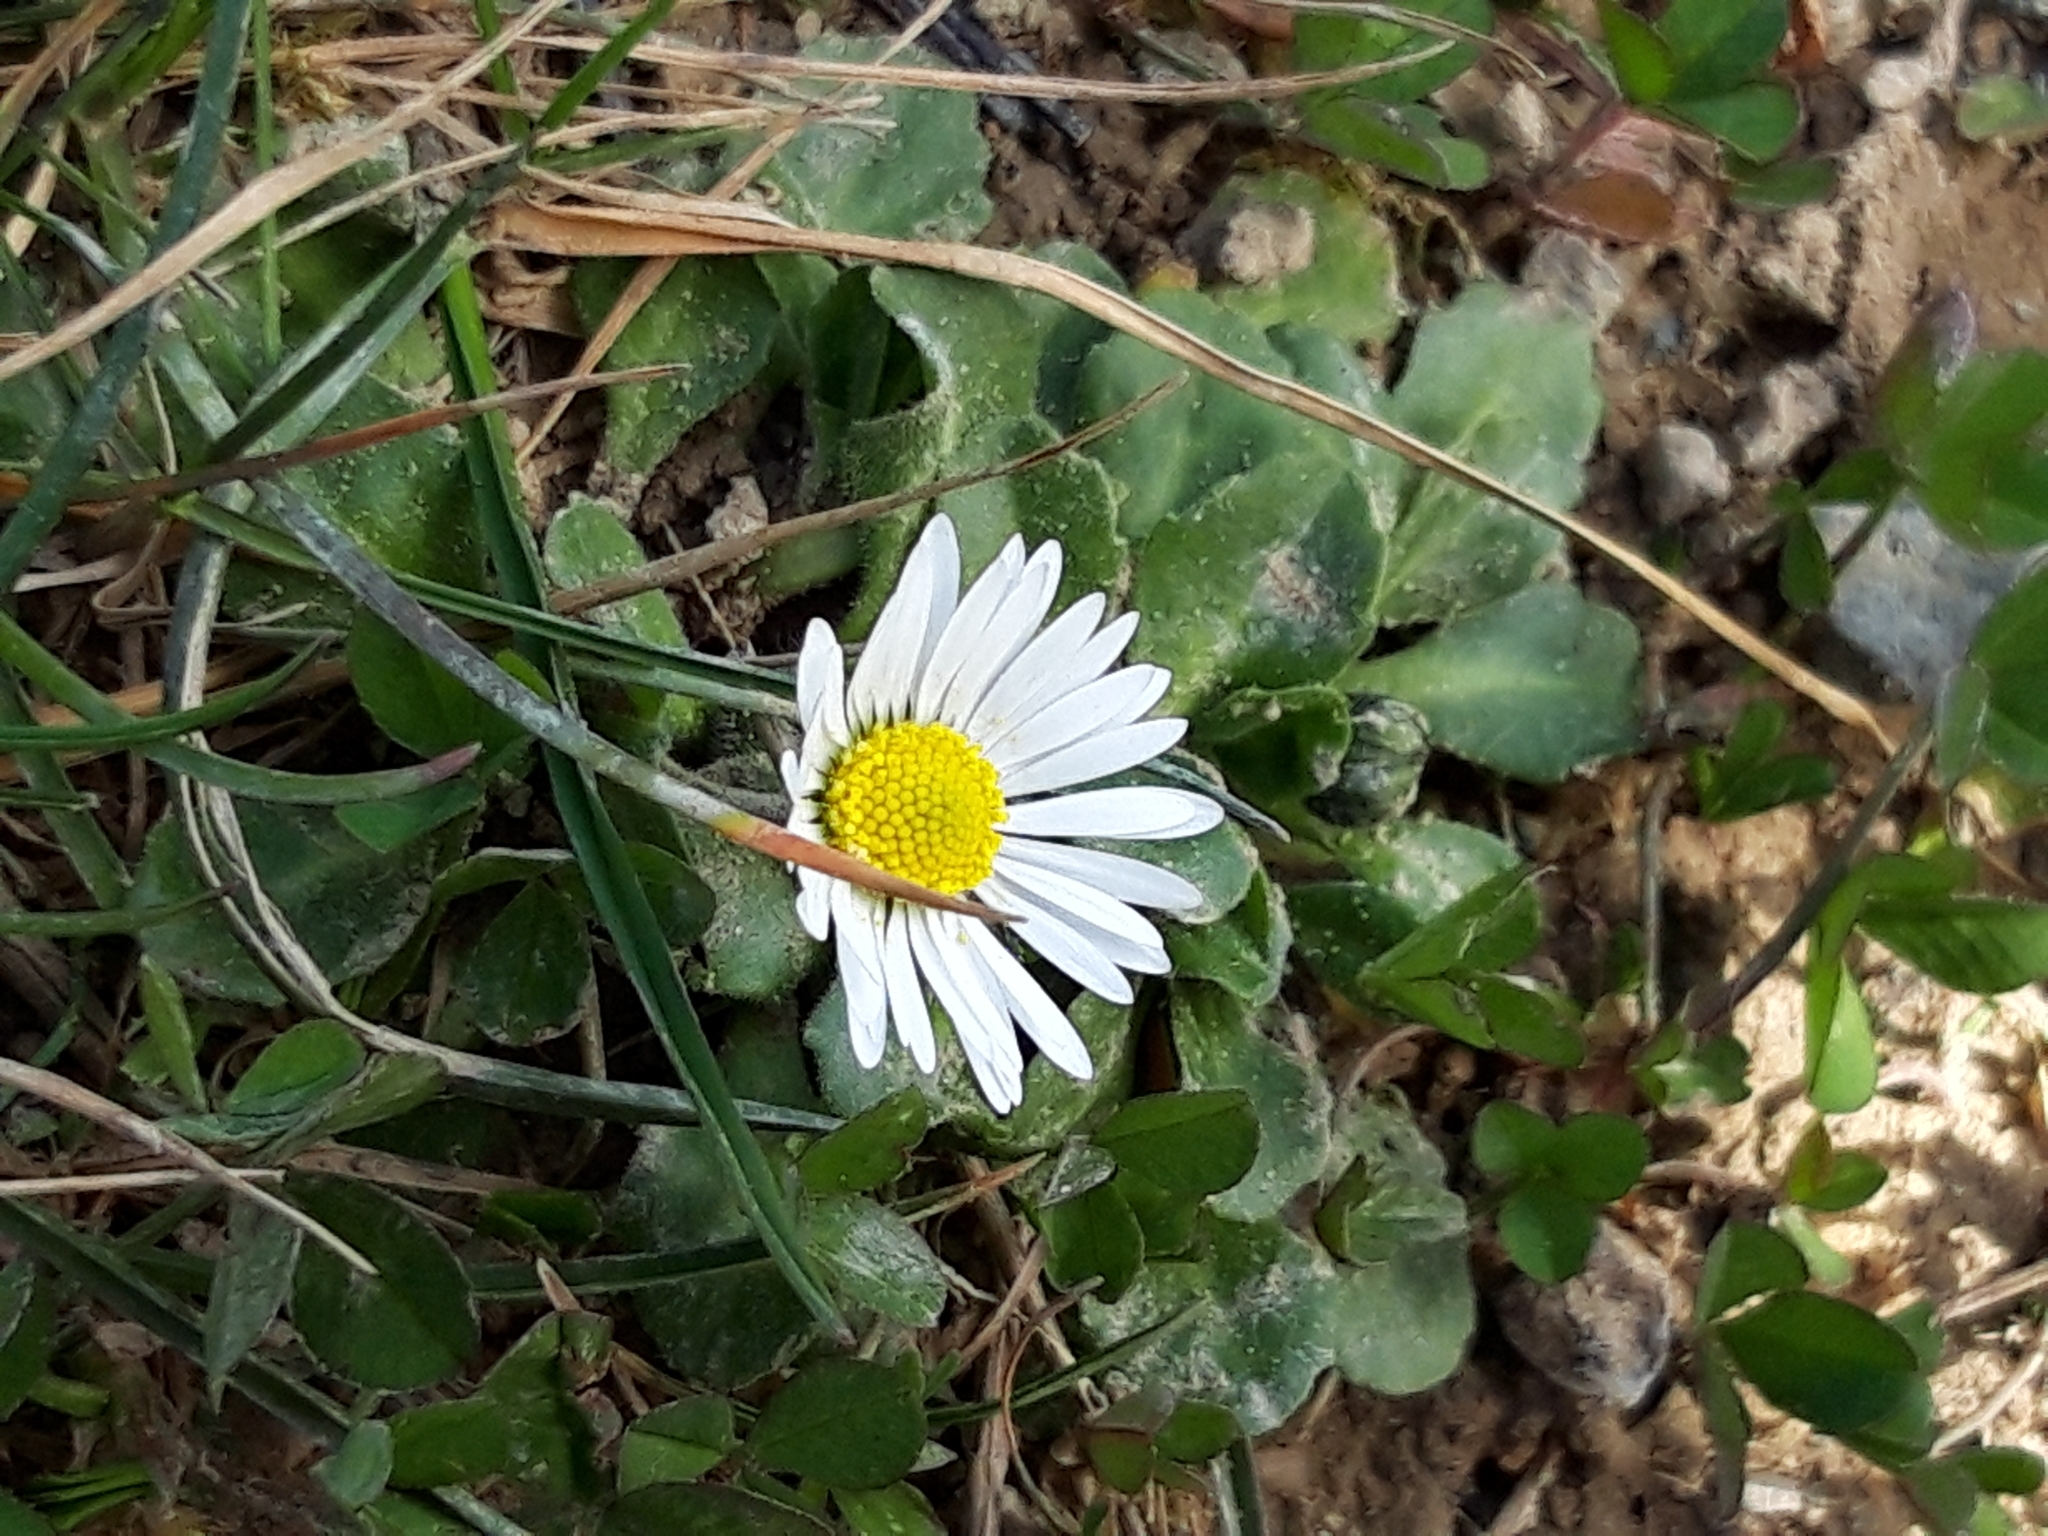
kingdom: Plantae
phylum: Tracheophyta
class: Magnoliopsida
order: Asterales
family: Asteraceae
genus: Bellis
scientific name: Bellis perennis
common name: Lawndaisy
